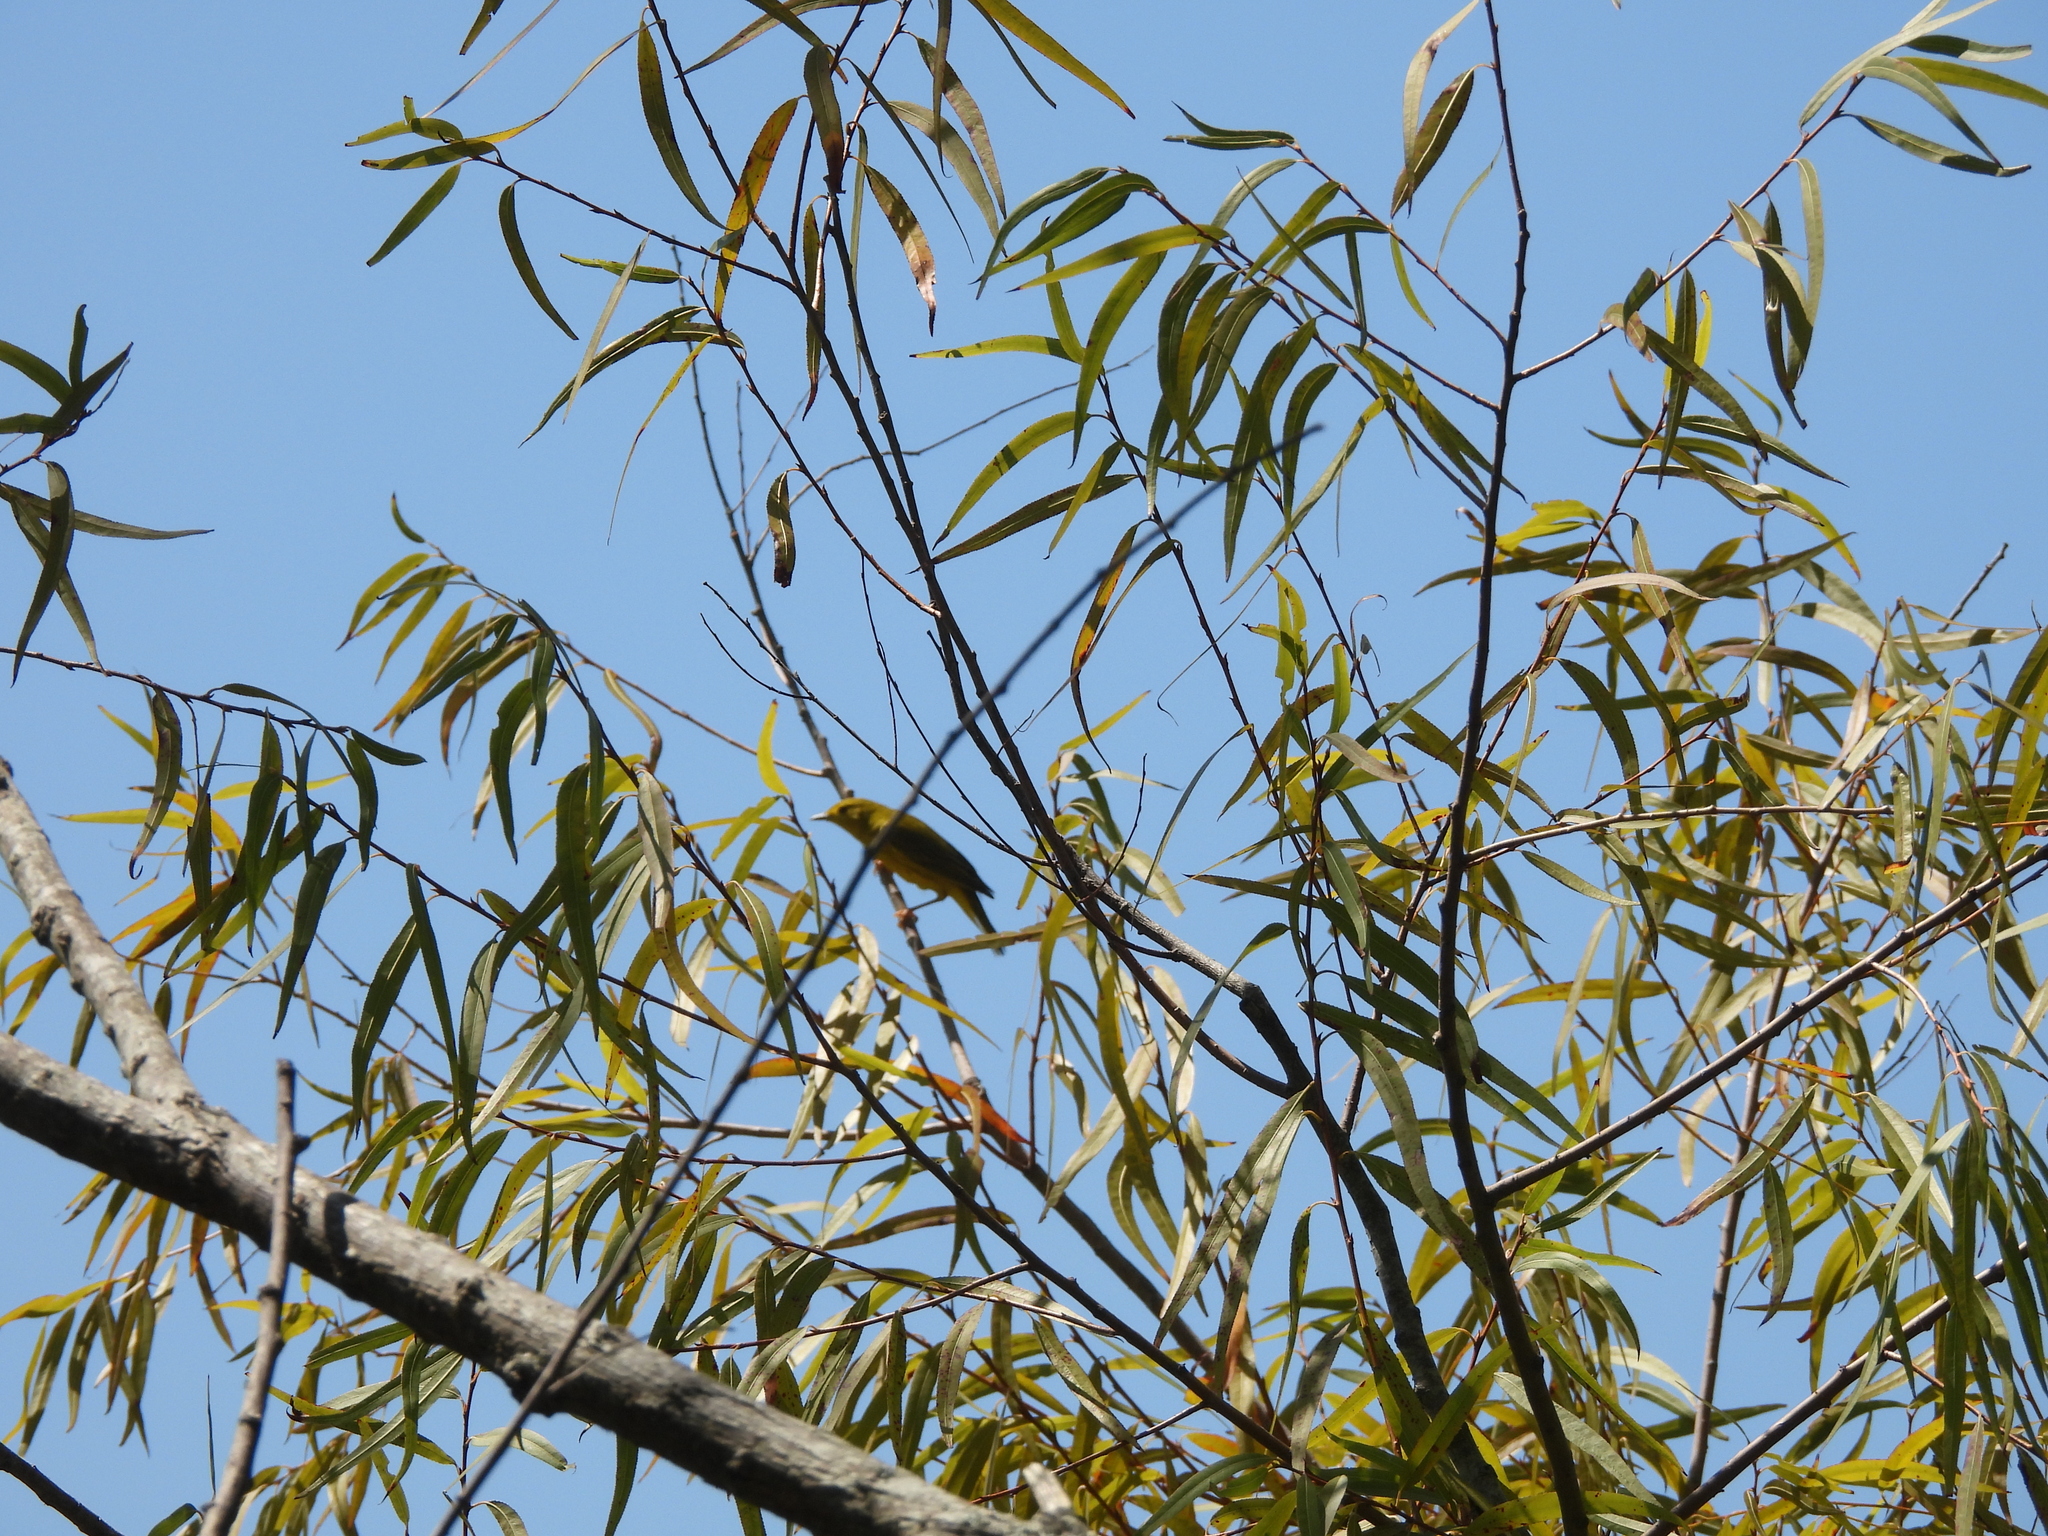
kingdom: Animalia
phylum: Chordata
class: Aves
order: Passeriformes
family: Parulidae
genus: Setophaga
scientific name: Setophaga petechia
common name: Yellow warbler
